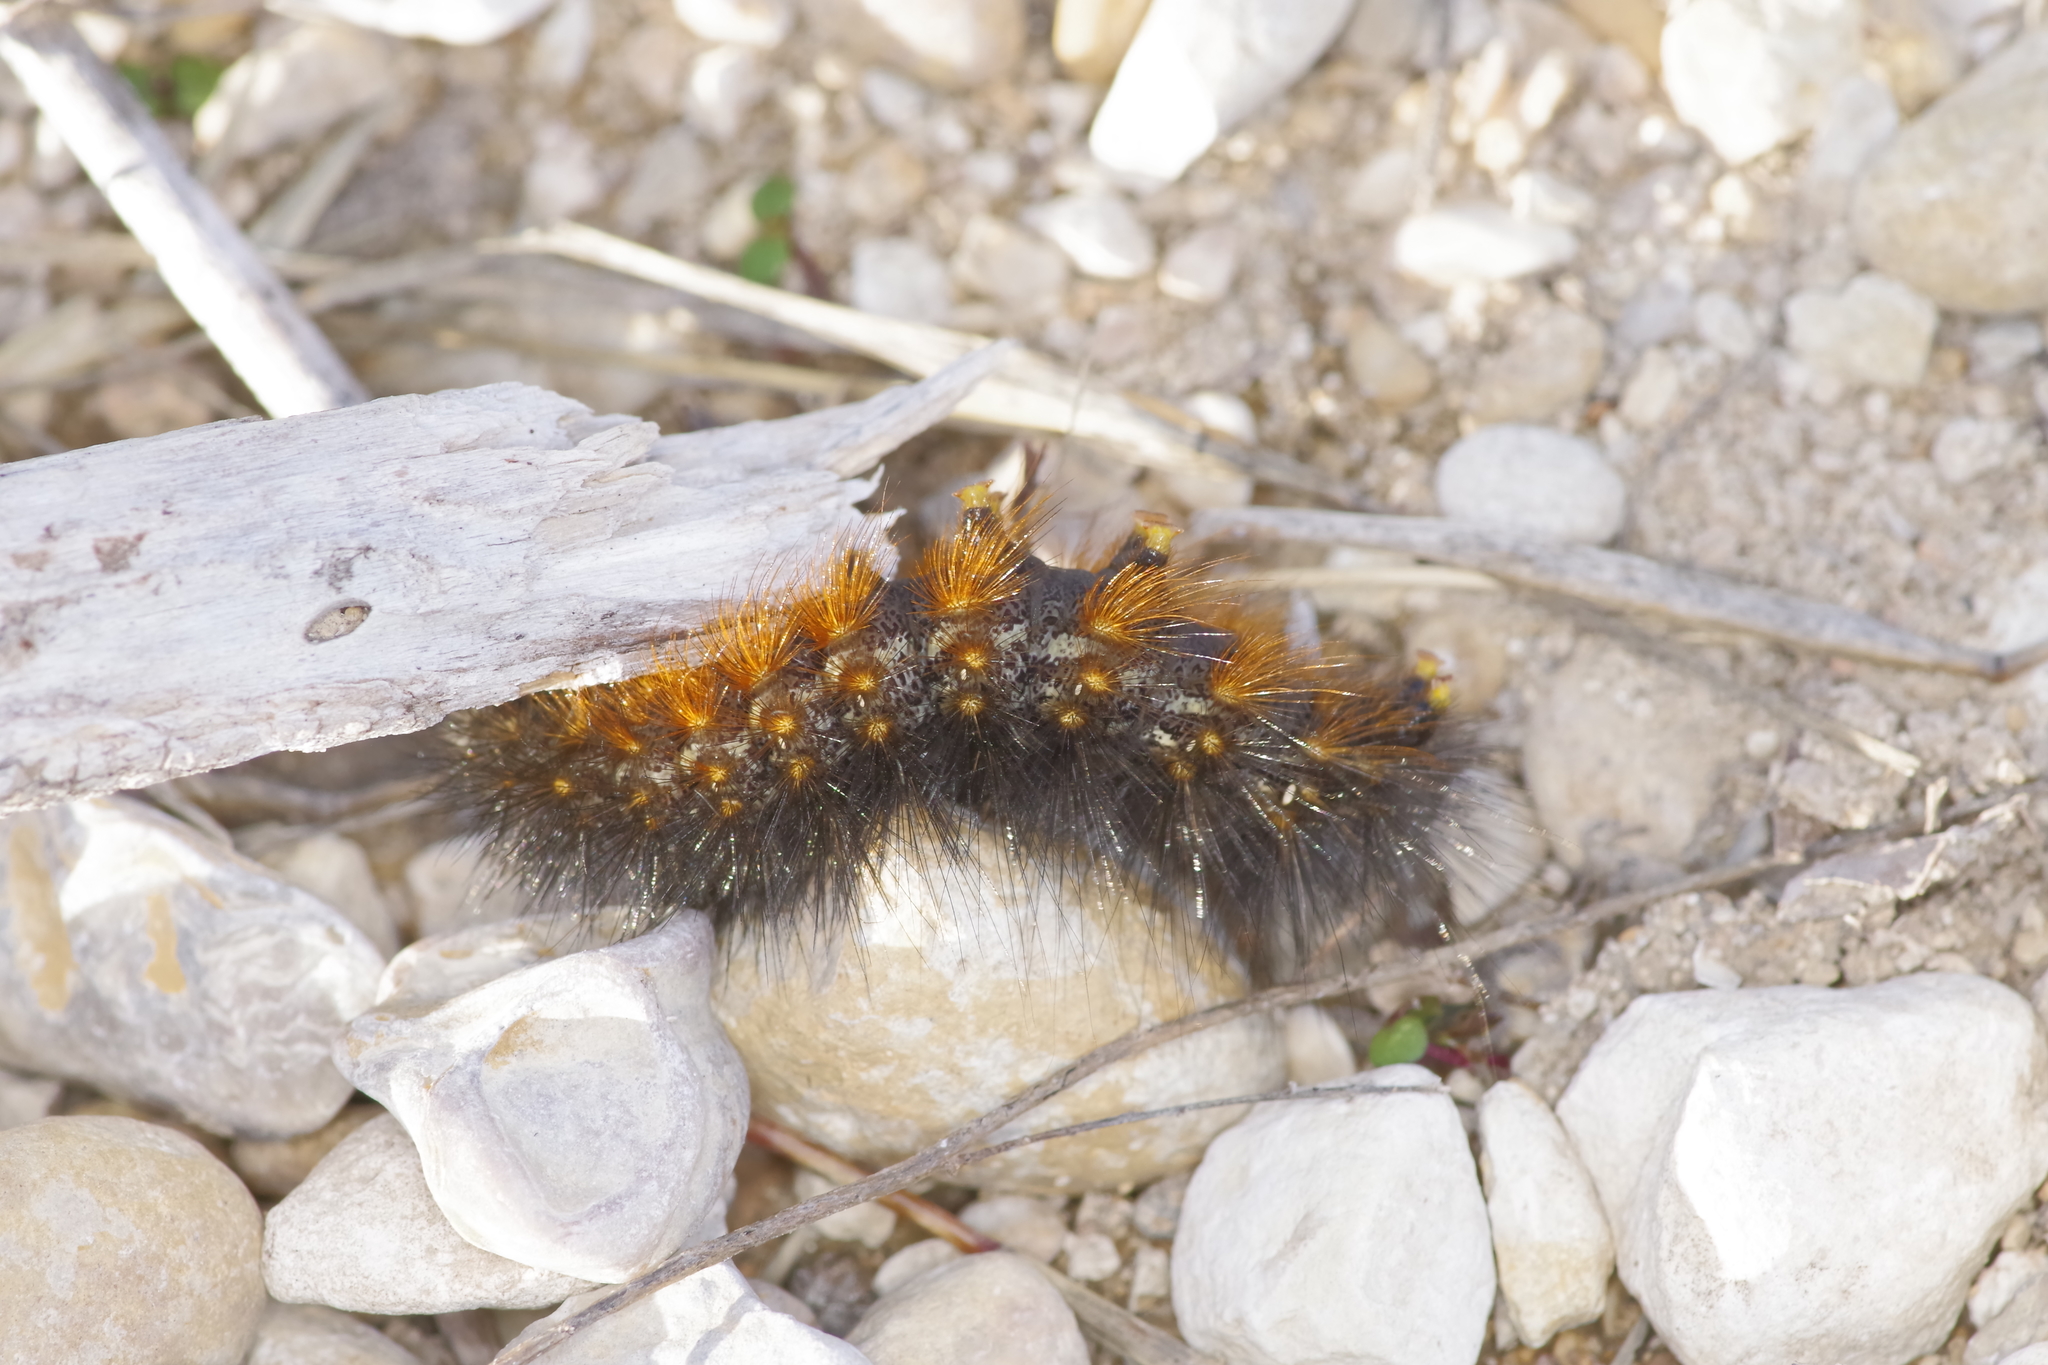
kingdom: Animalia
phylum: Arthropoda
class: Insecta
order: Lepidoptera
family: Erebidae
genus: Estigmene
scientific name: Estigmene acrea
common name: Salt marsh moth
